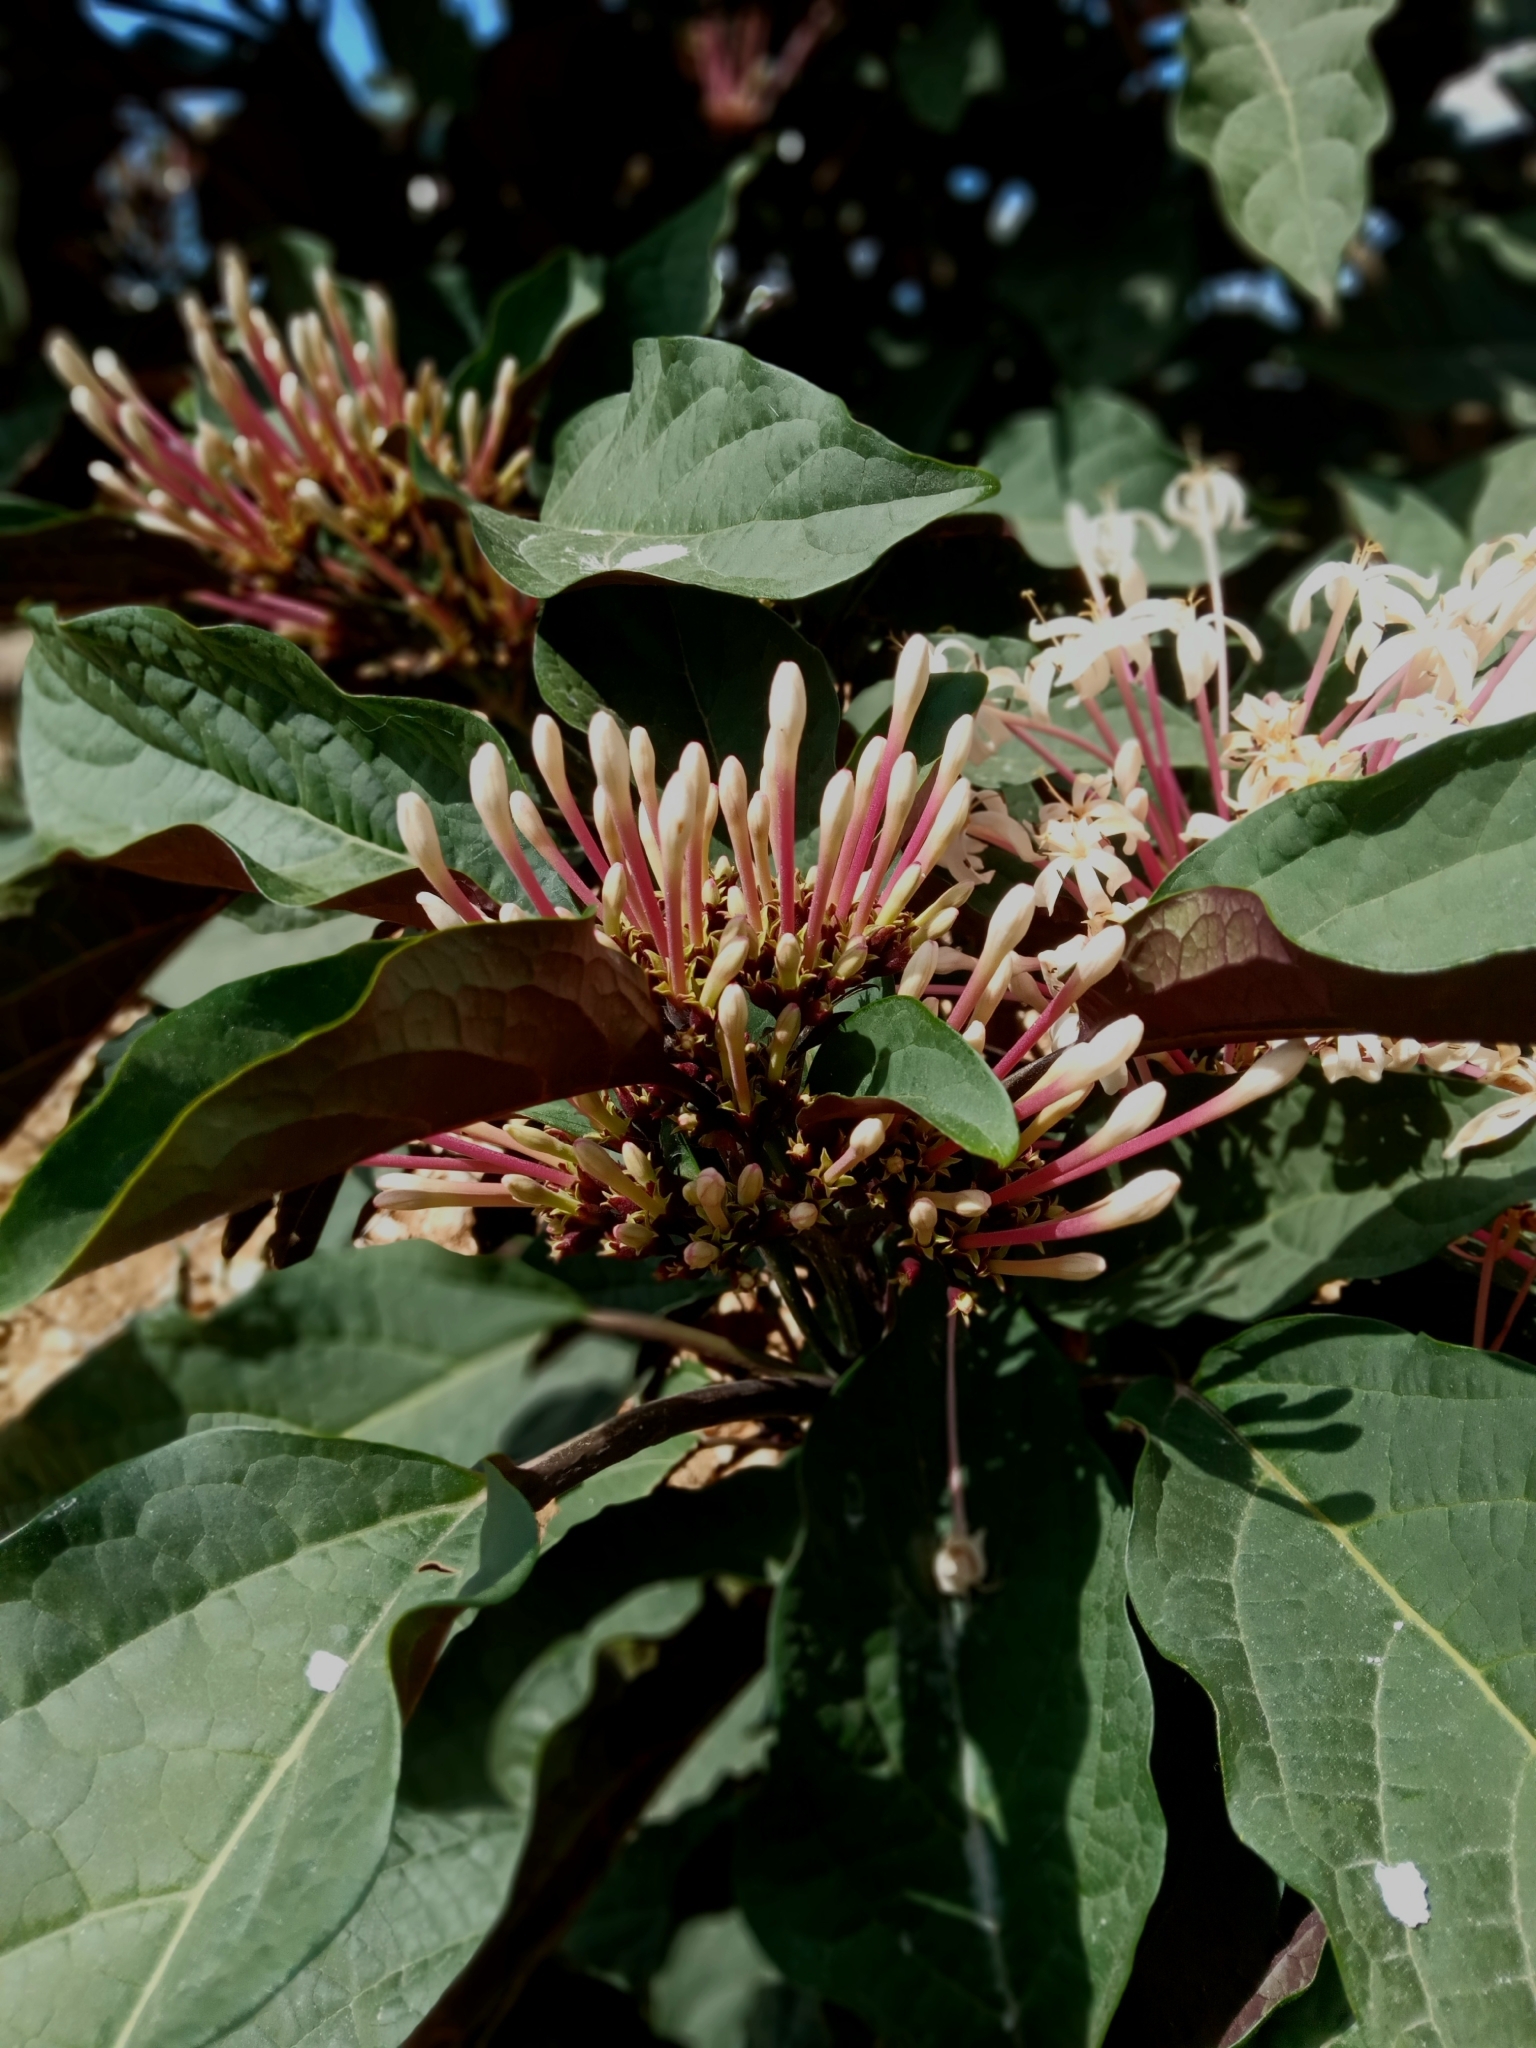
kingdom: Plantae
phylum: Tracheophyta
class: Magnoliopsida
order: Lamiales
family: Lamiaceae
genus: Clerodendrum
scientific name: Clerodendrum quadriloculare
